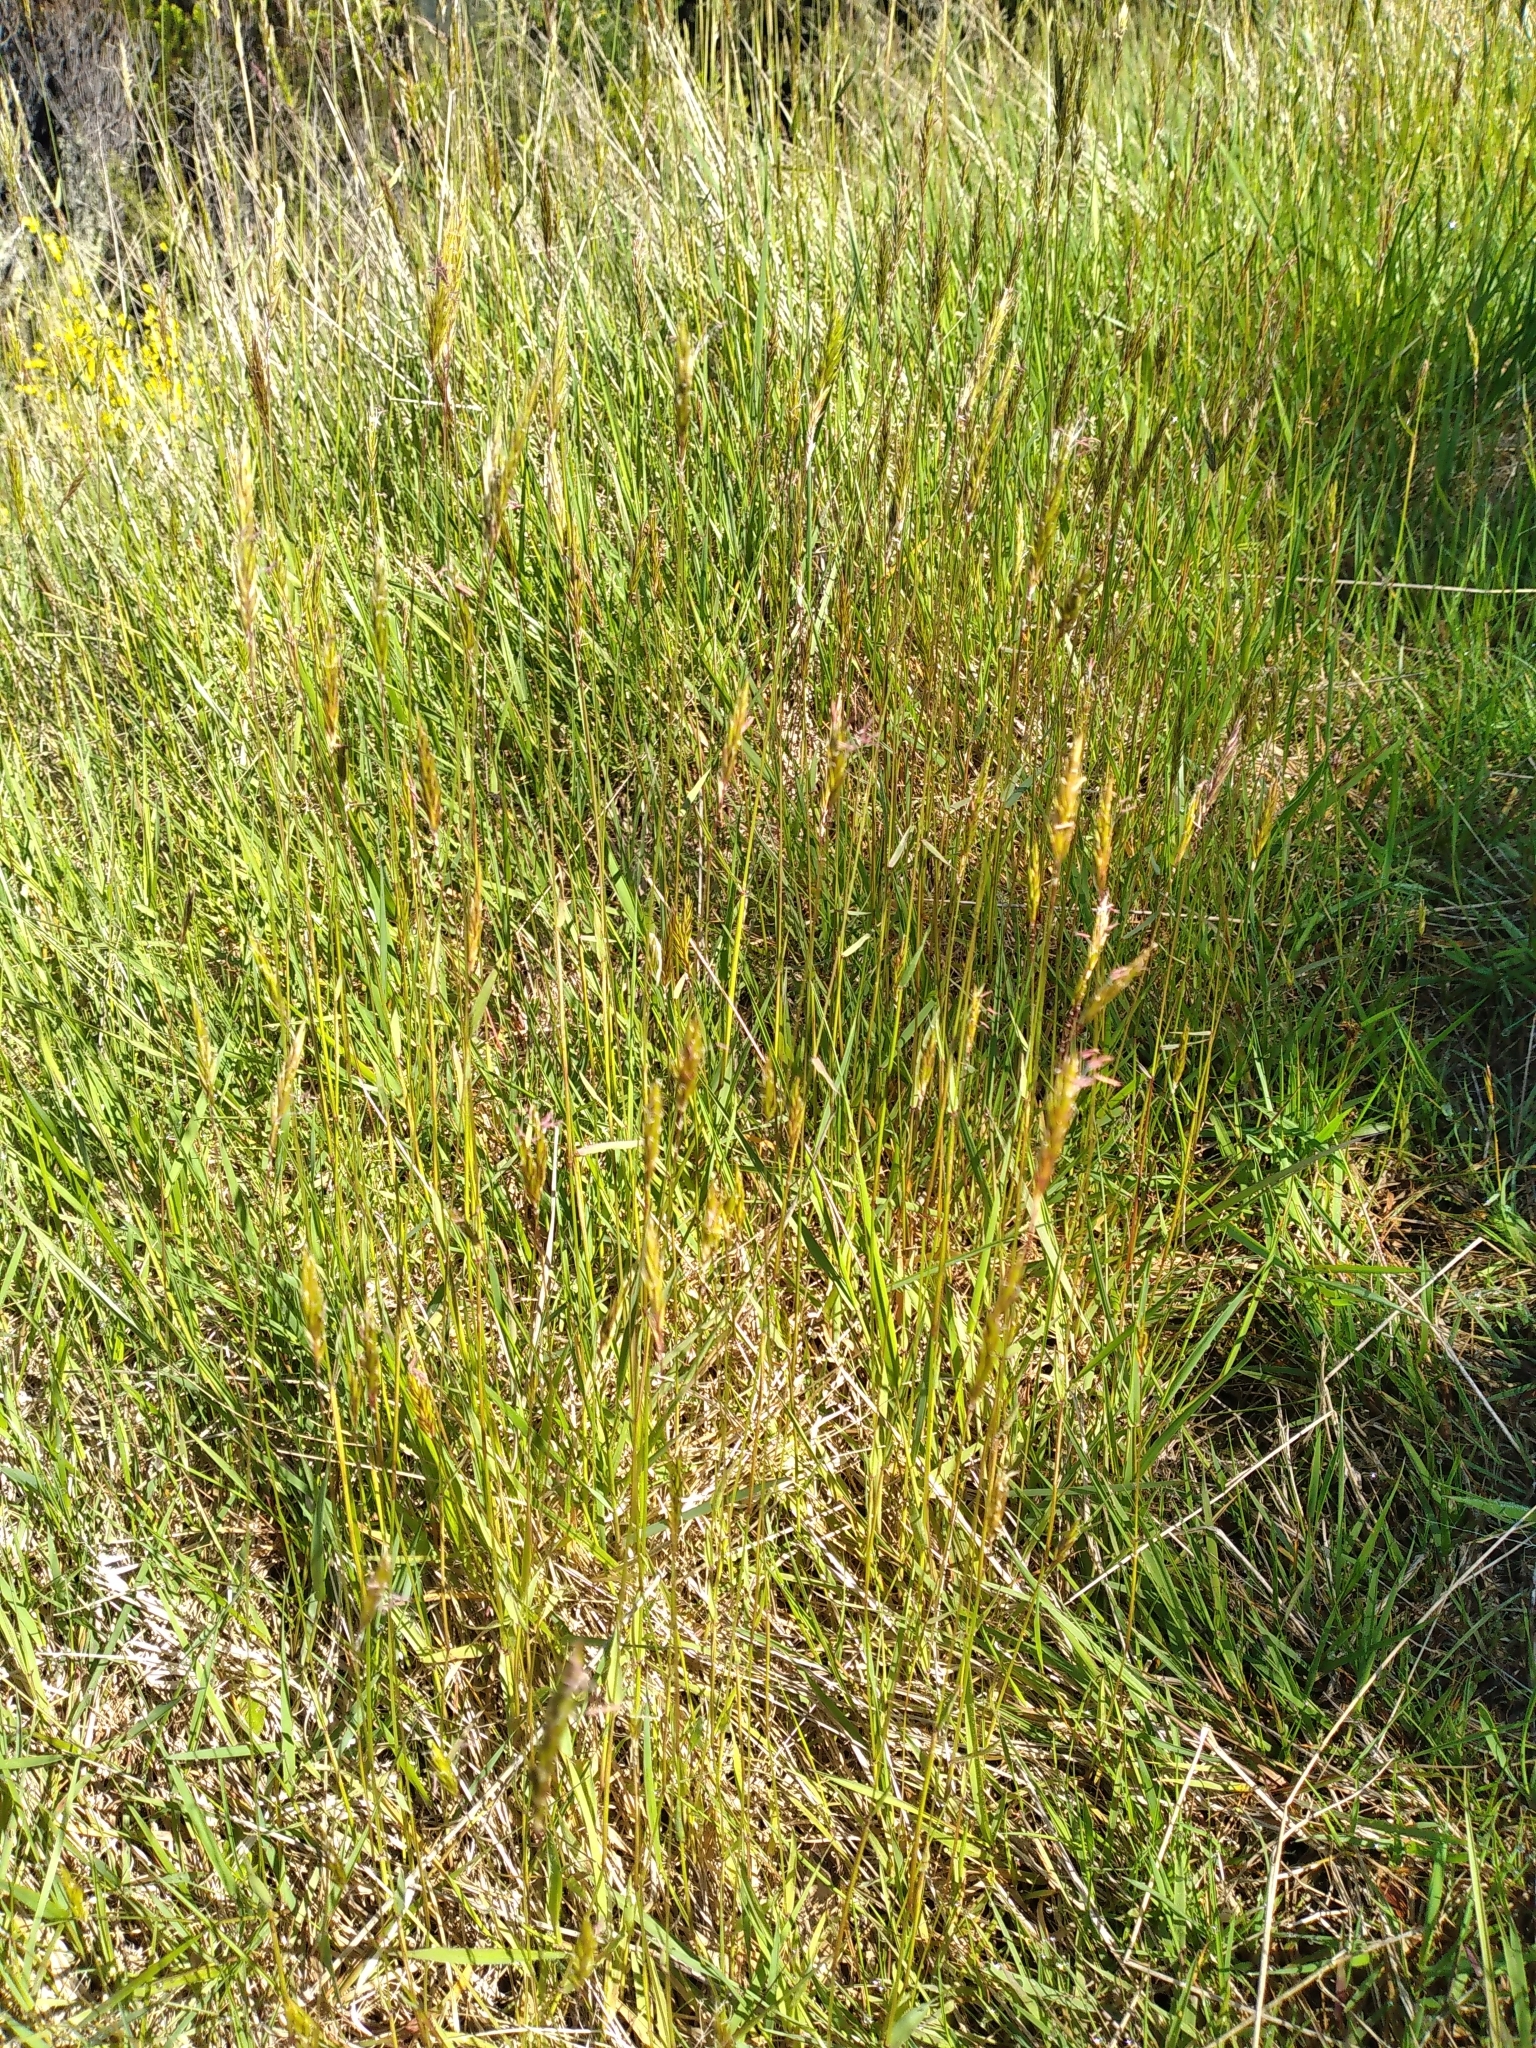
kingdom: Plantae
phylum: Tracheophyta
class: Liliopsida
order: Poales
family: Poaceae
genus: Anthoxanthum
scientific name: Anthoxanthum odoratum
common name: Sweet vernalgrass
